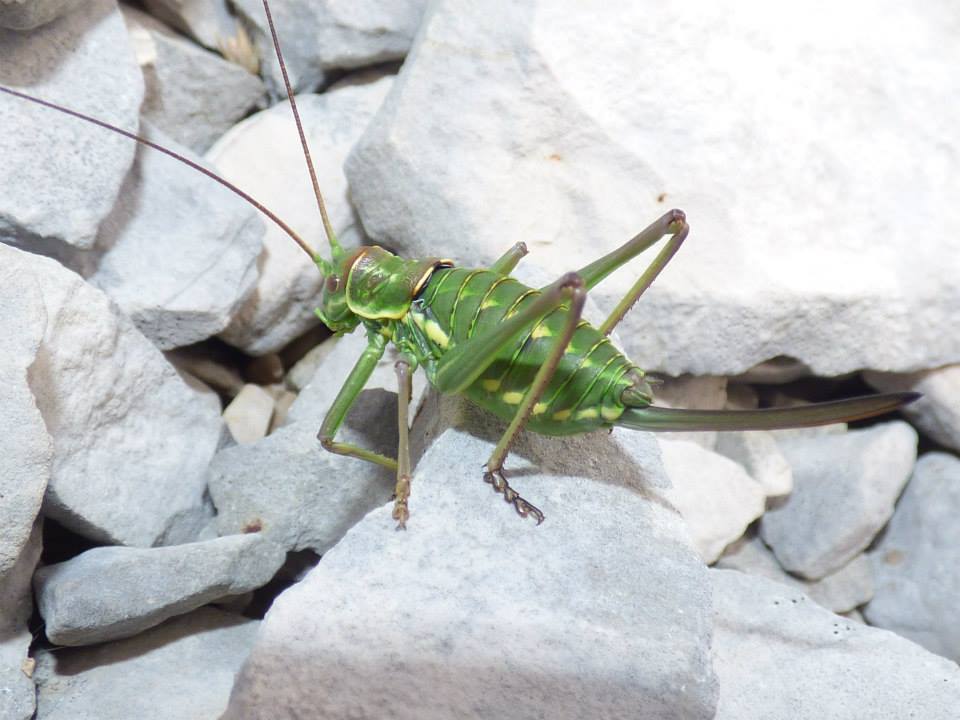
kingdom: Animalia
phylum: Arthropoda
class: Insecta
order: Orthoptera
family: Tettigoniidae
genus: Dinarippiger
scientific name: Dinarippiger discoidalis
